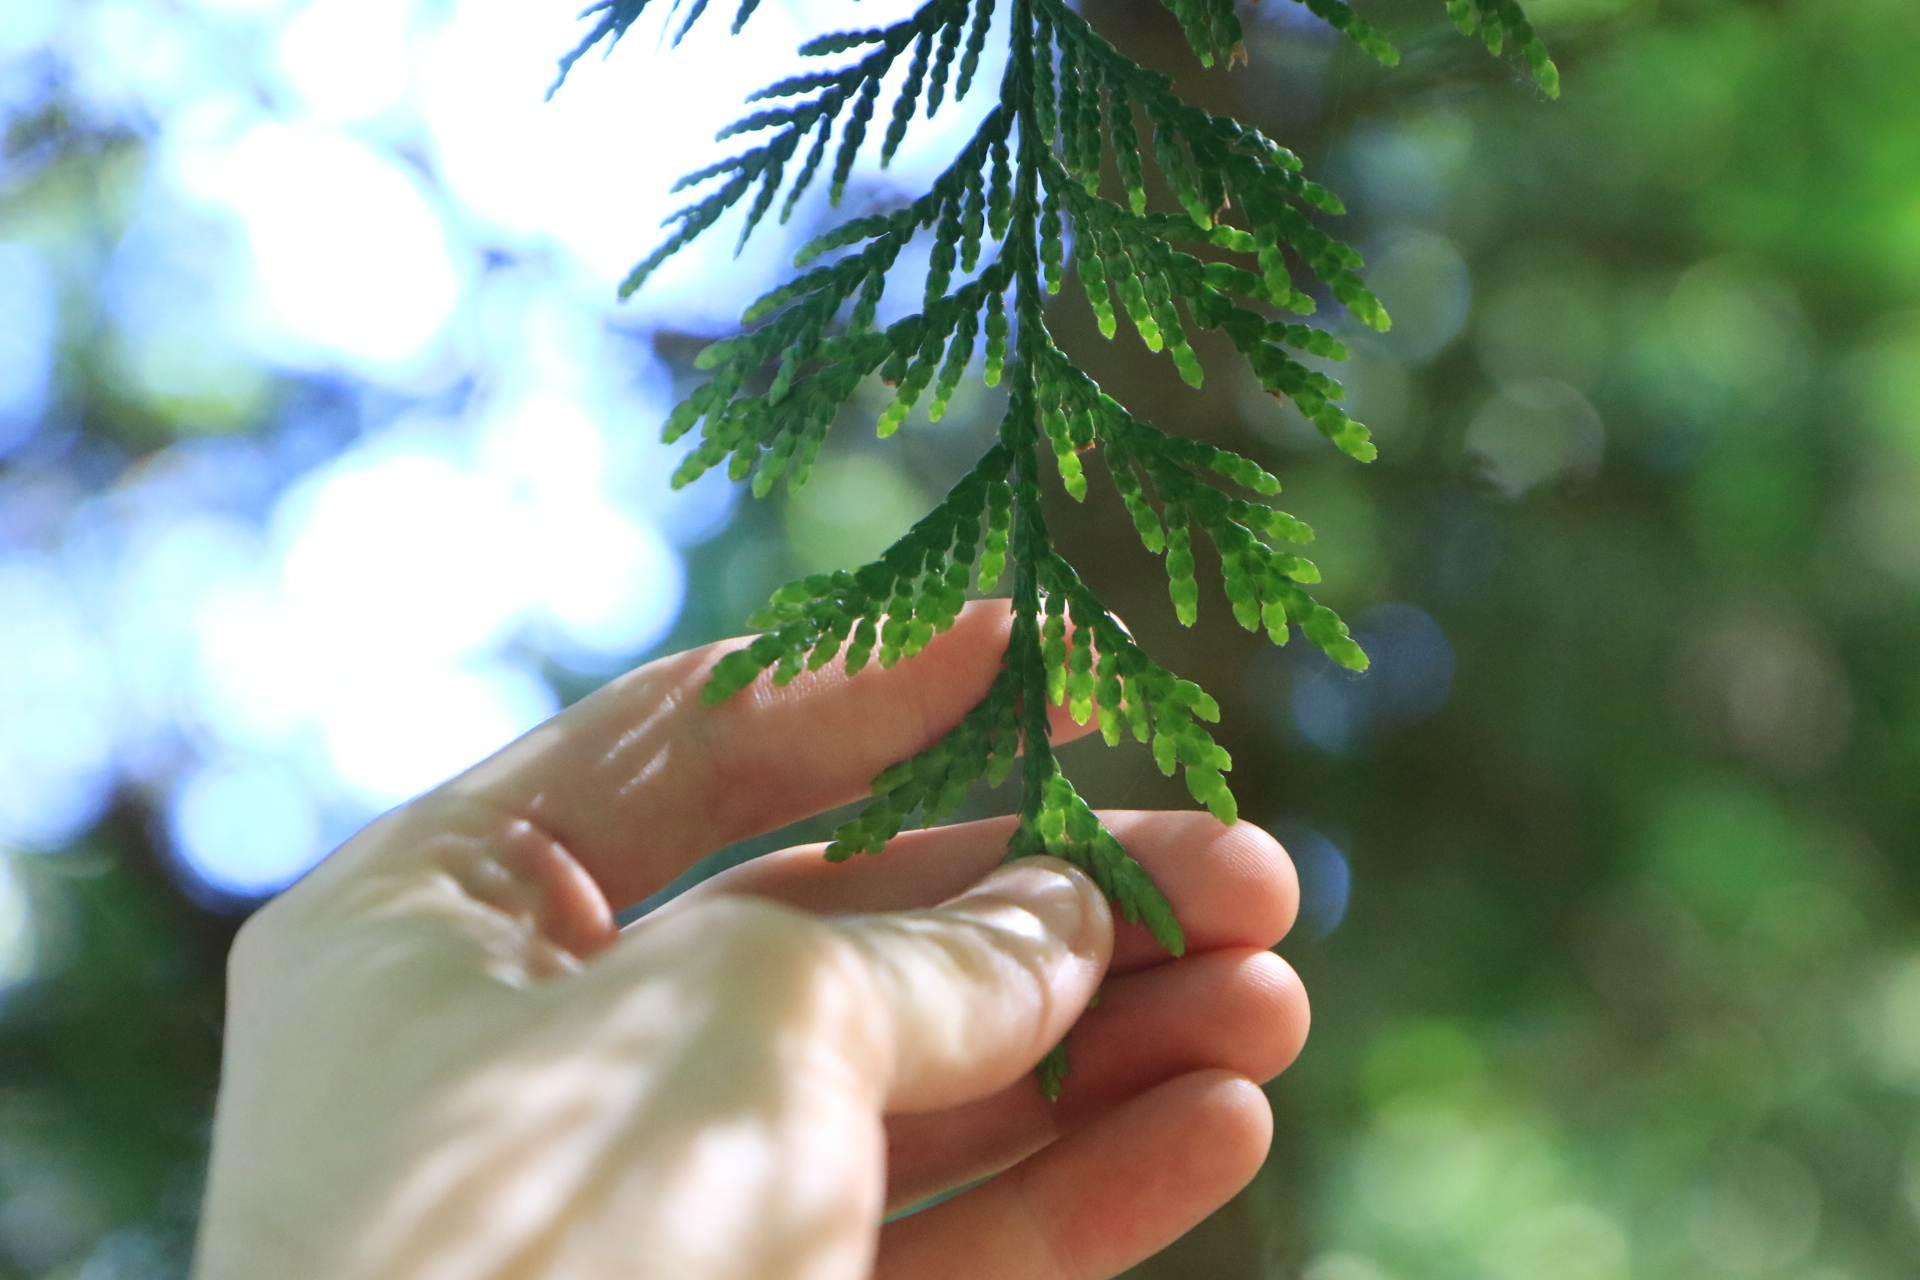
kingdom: Plantae
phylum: Tracheophyta
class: Pinopsida
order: Pinales
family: Cupressaceae
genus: Thuja
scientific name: Thuja plicata
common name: Western red-cedar
